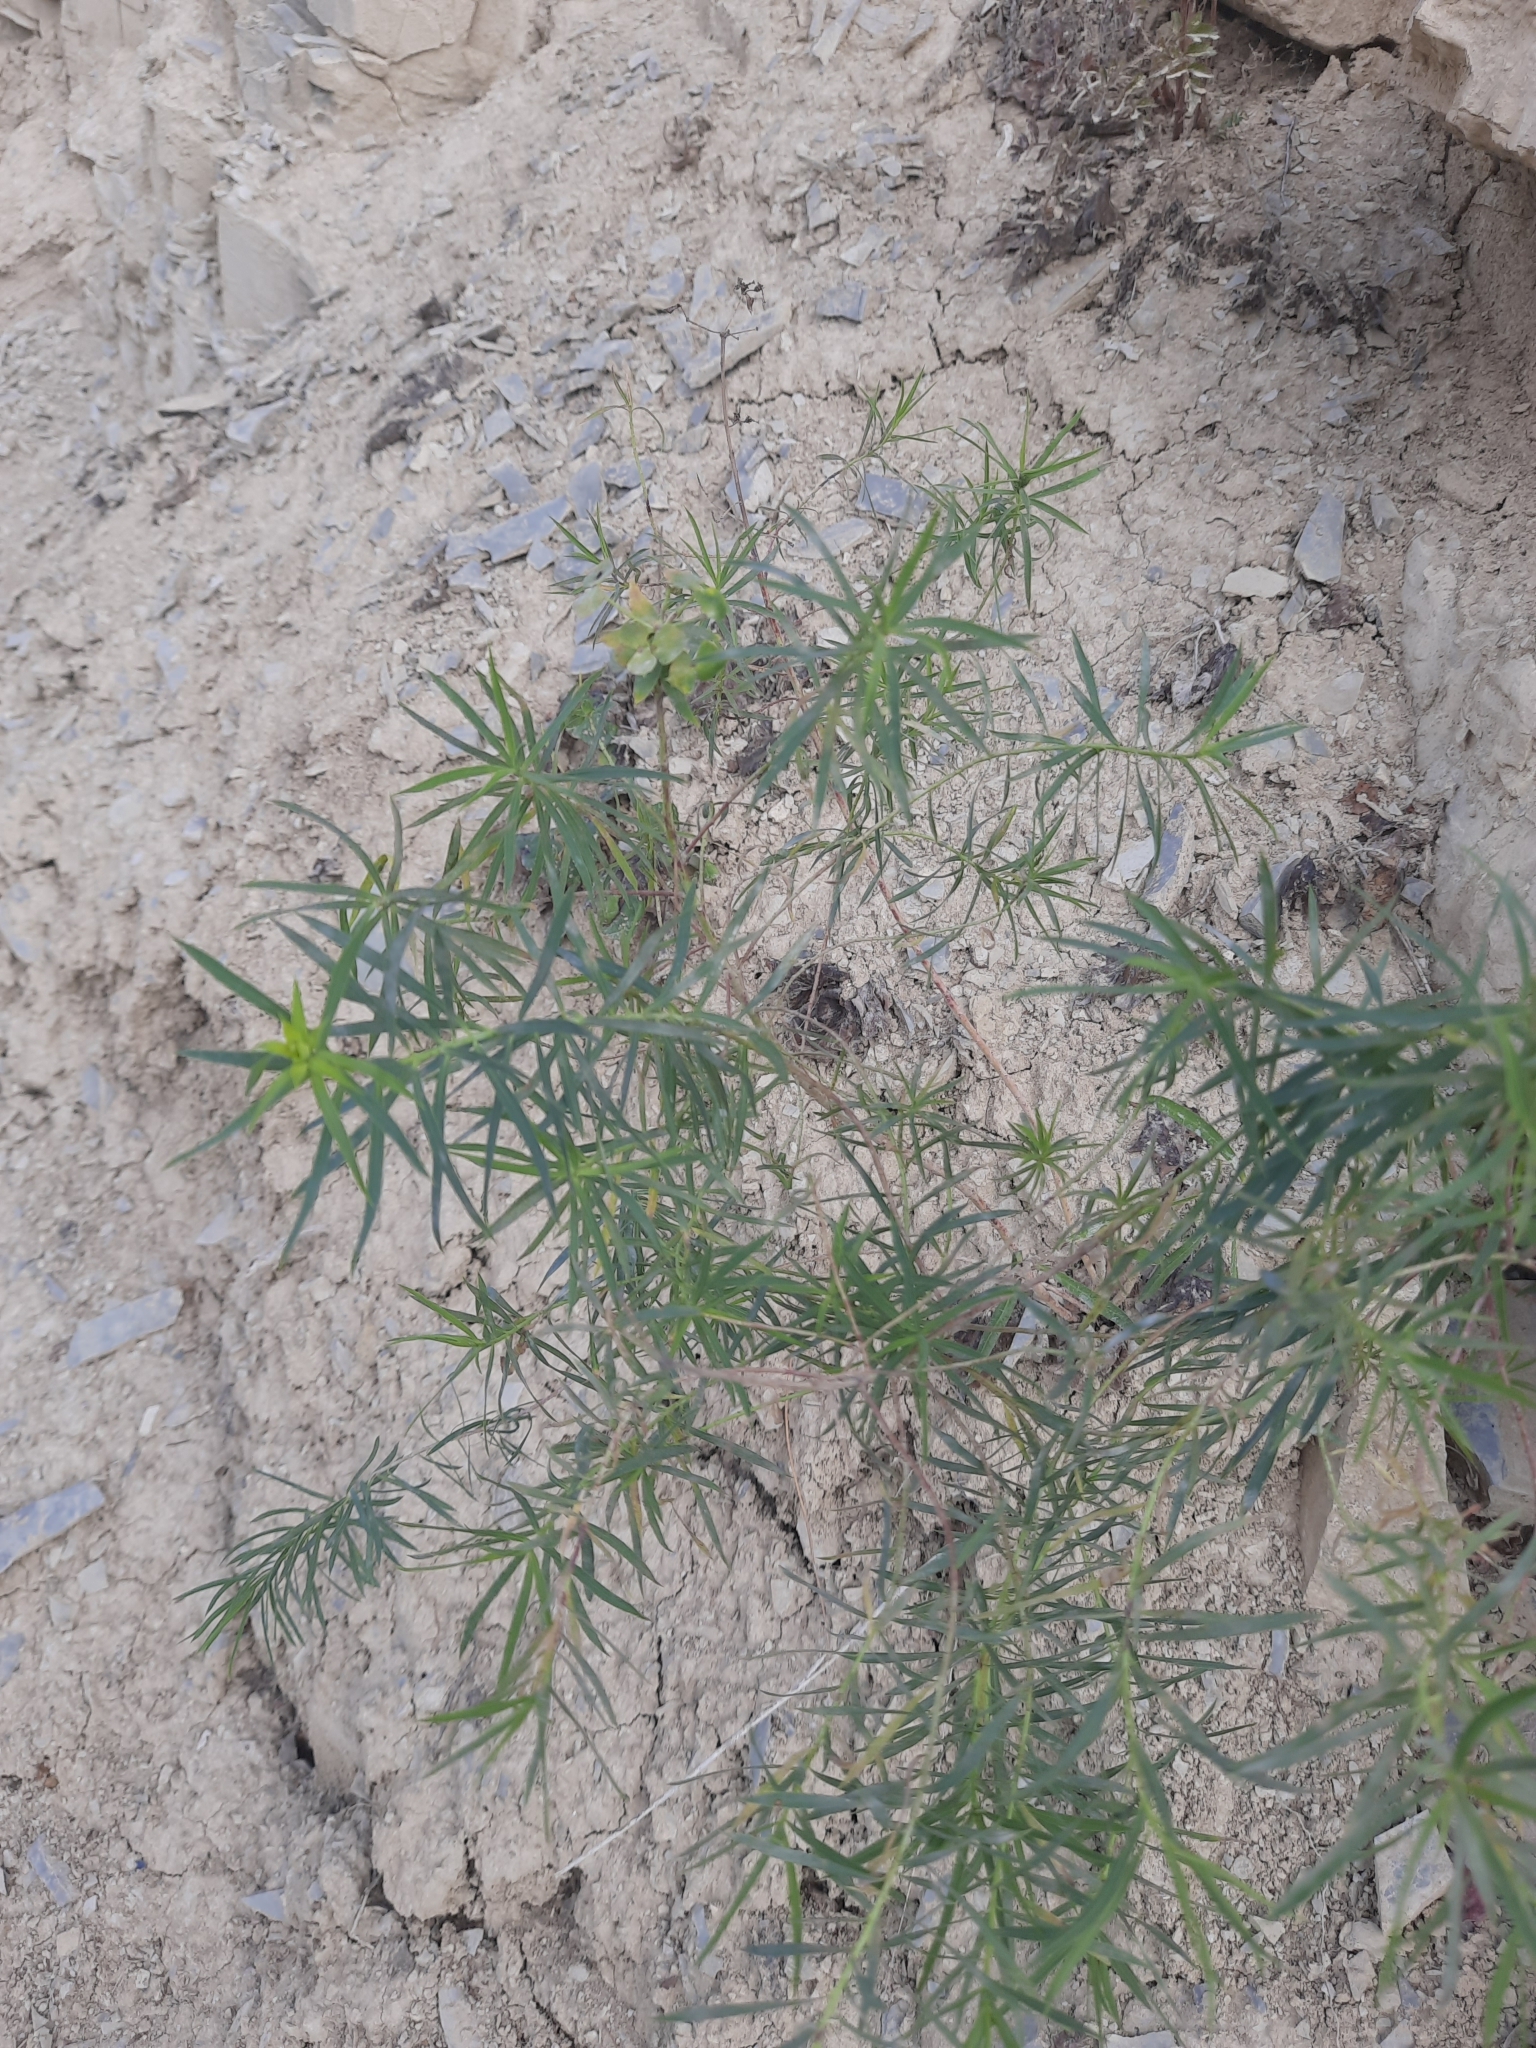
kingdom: Plantae
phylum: Tracheophyta
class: Magnoliopsida
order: Malpighiales
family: Euphorbiaceae
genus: Euphorbia
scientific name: Euphorbia virgata
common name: Leafy spurge
